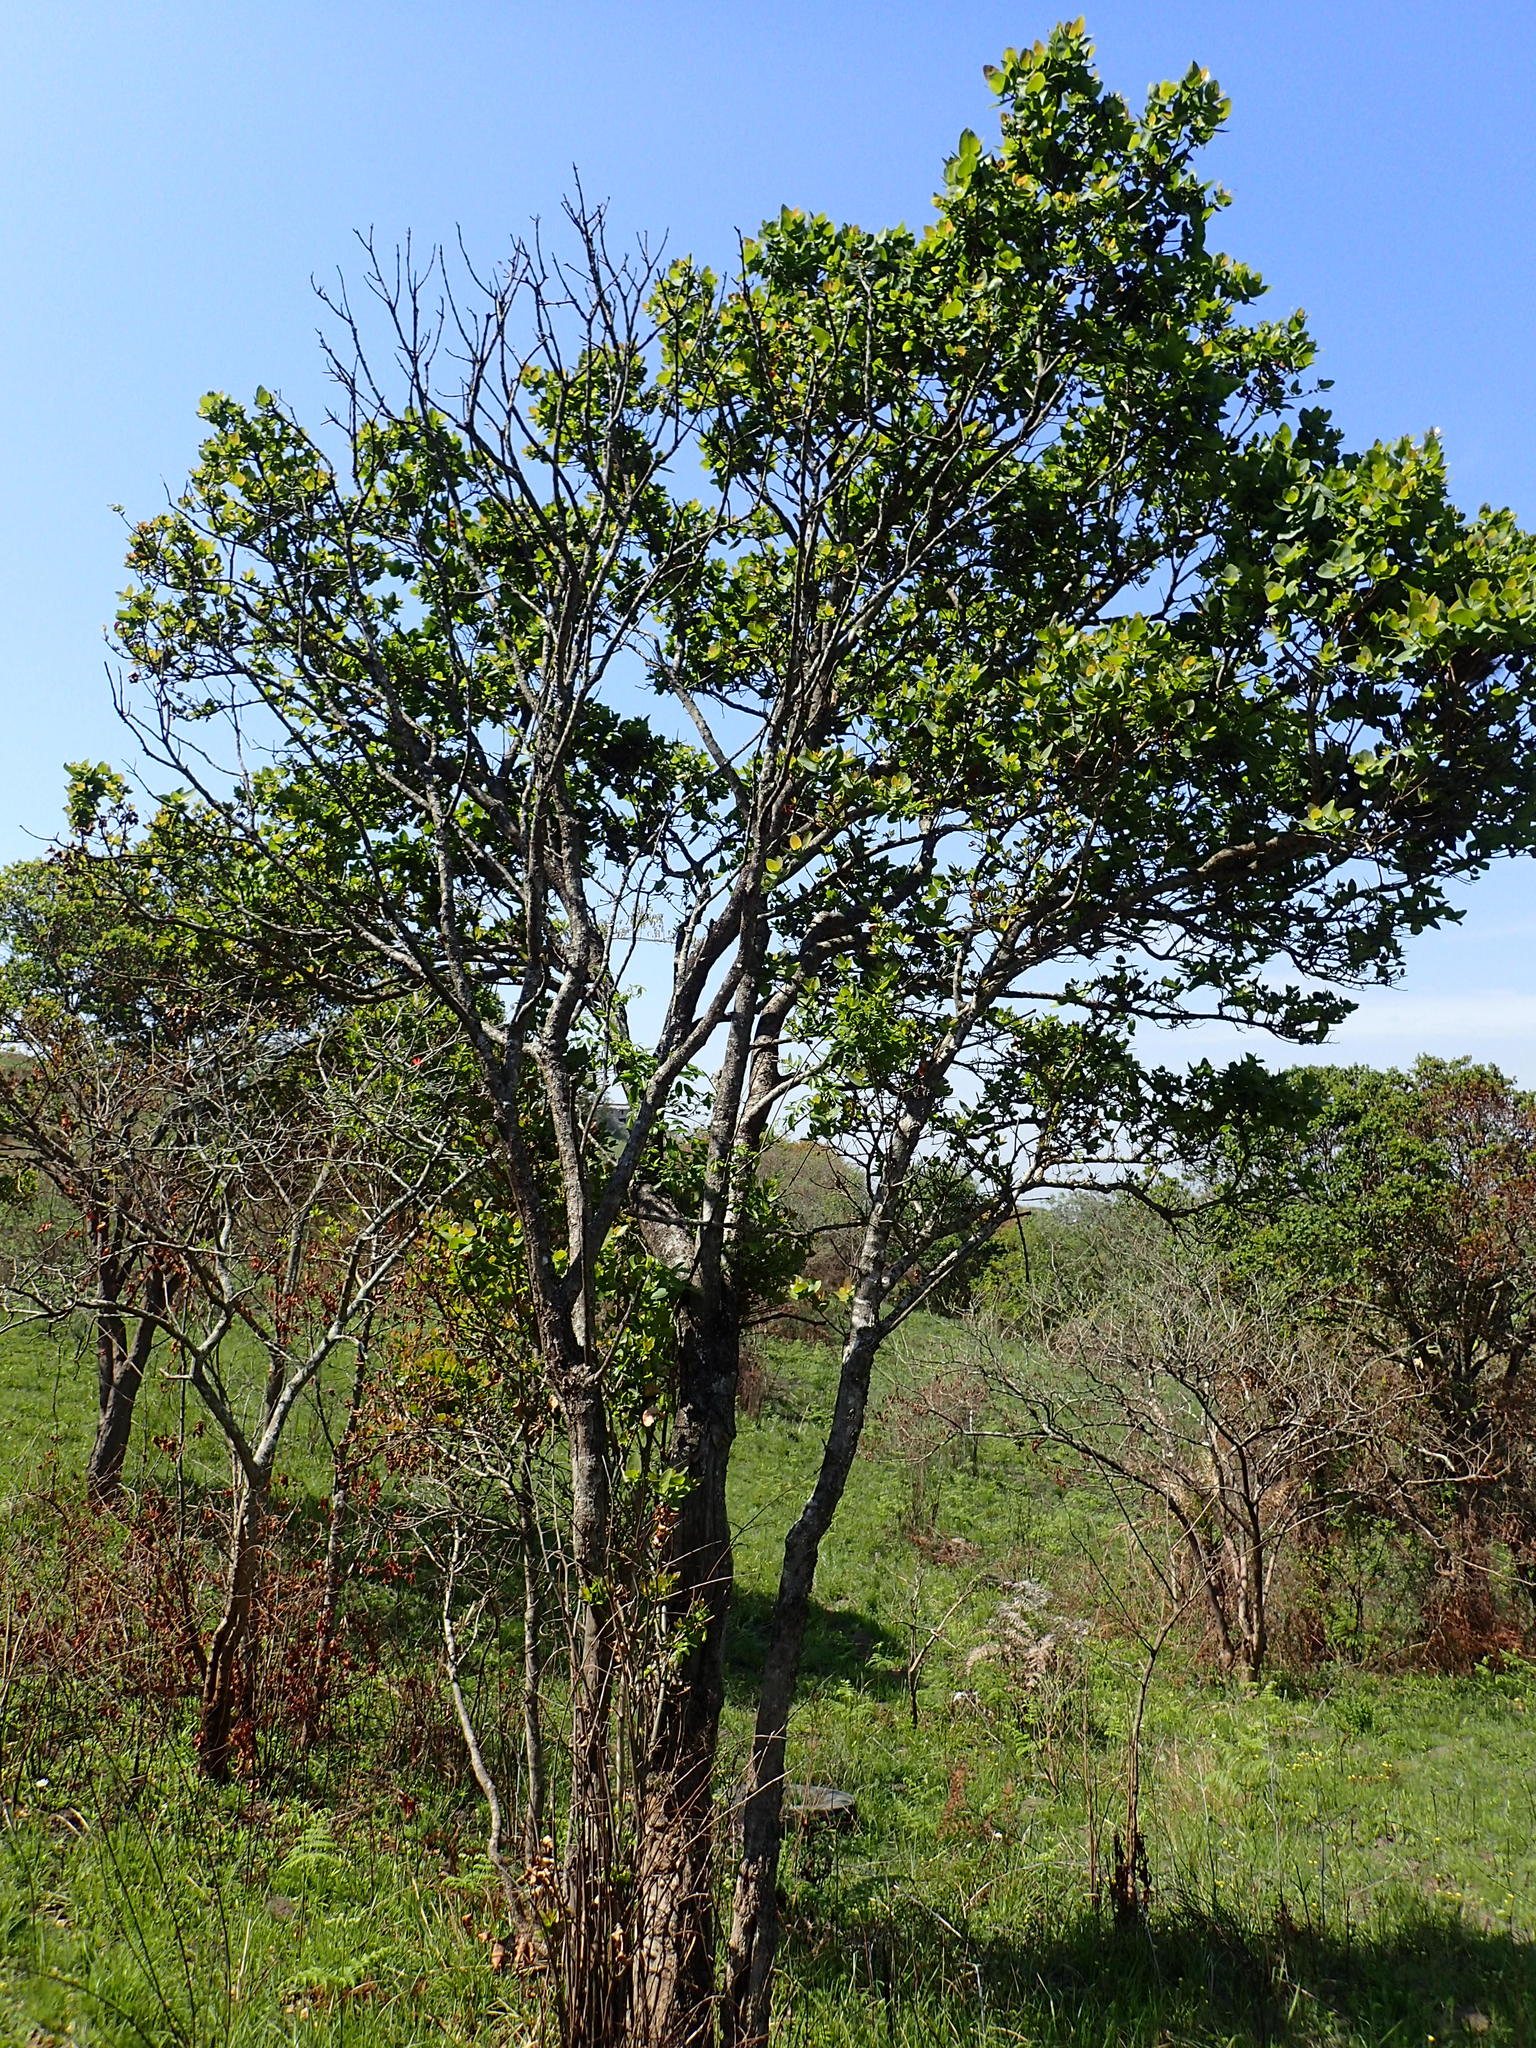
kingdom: Plantae
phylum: Tracheophyta
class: Magnoliopsida
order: Myrtales
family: Myrtaceae
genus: Syzygium
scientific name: Syzygium cordatum
